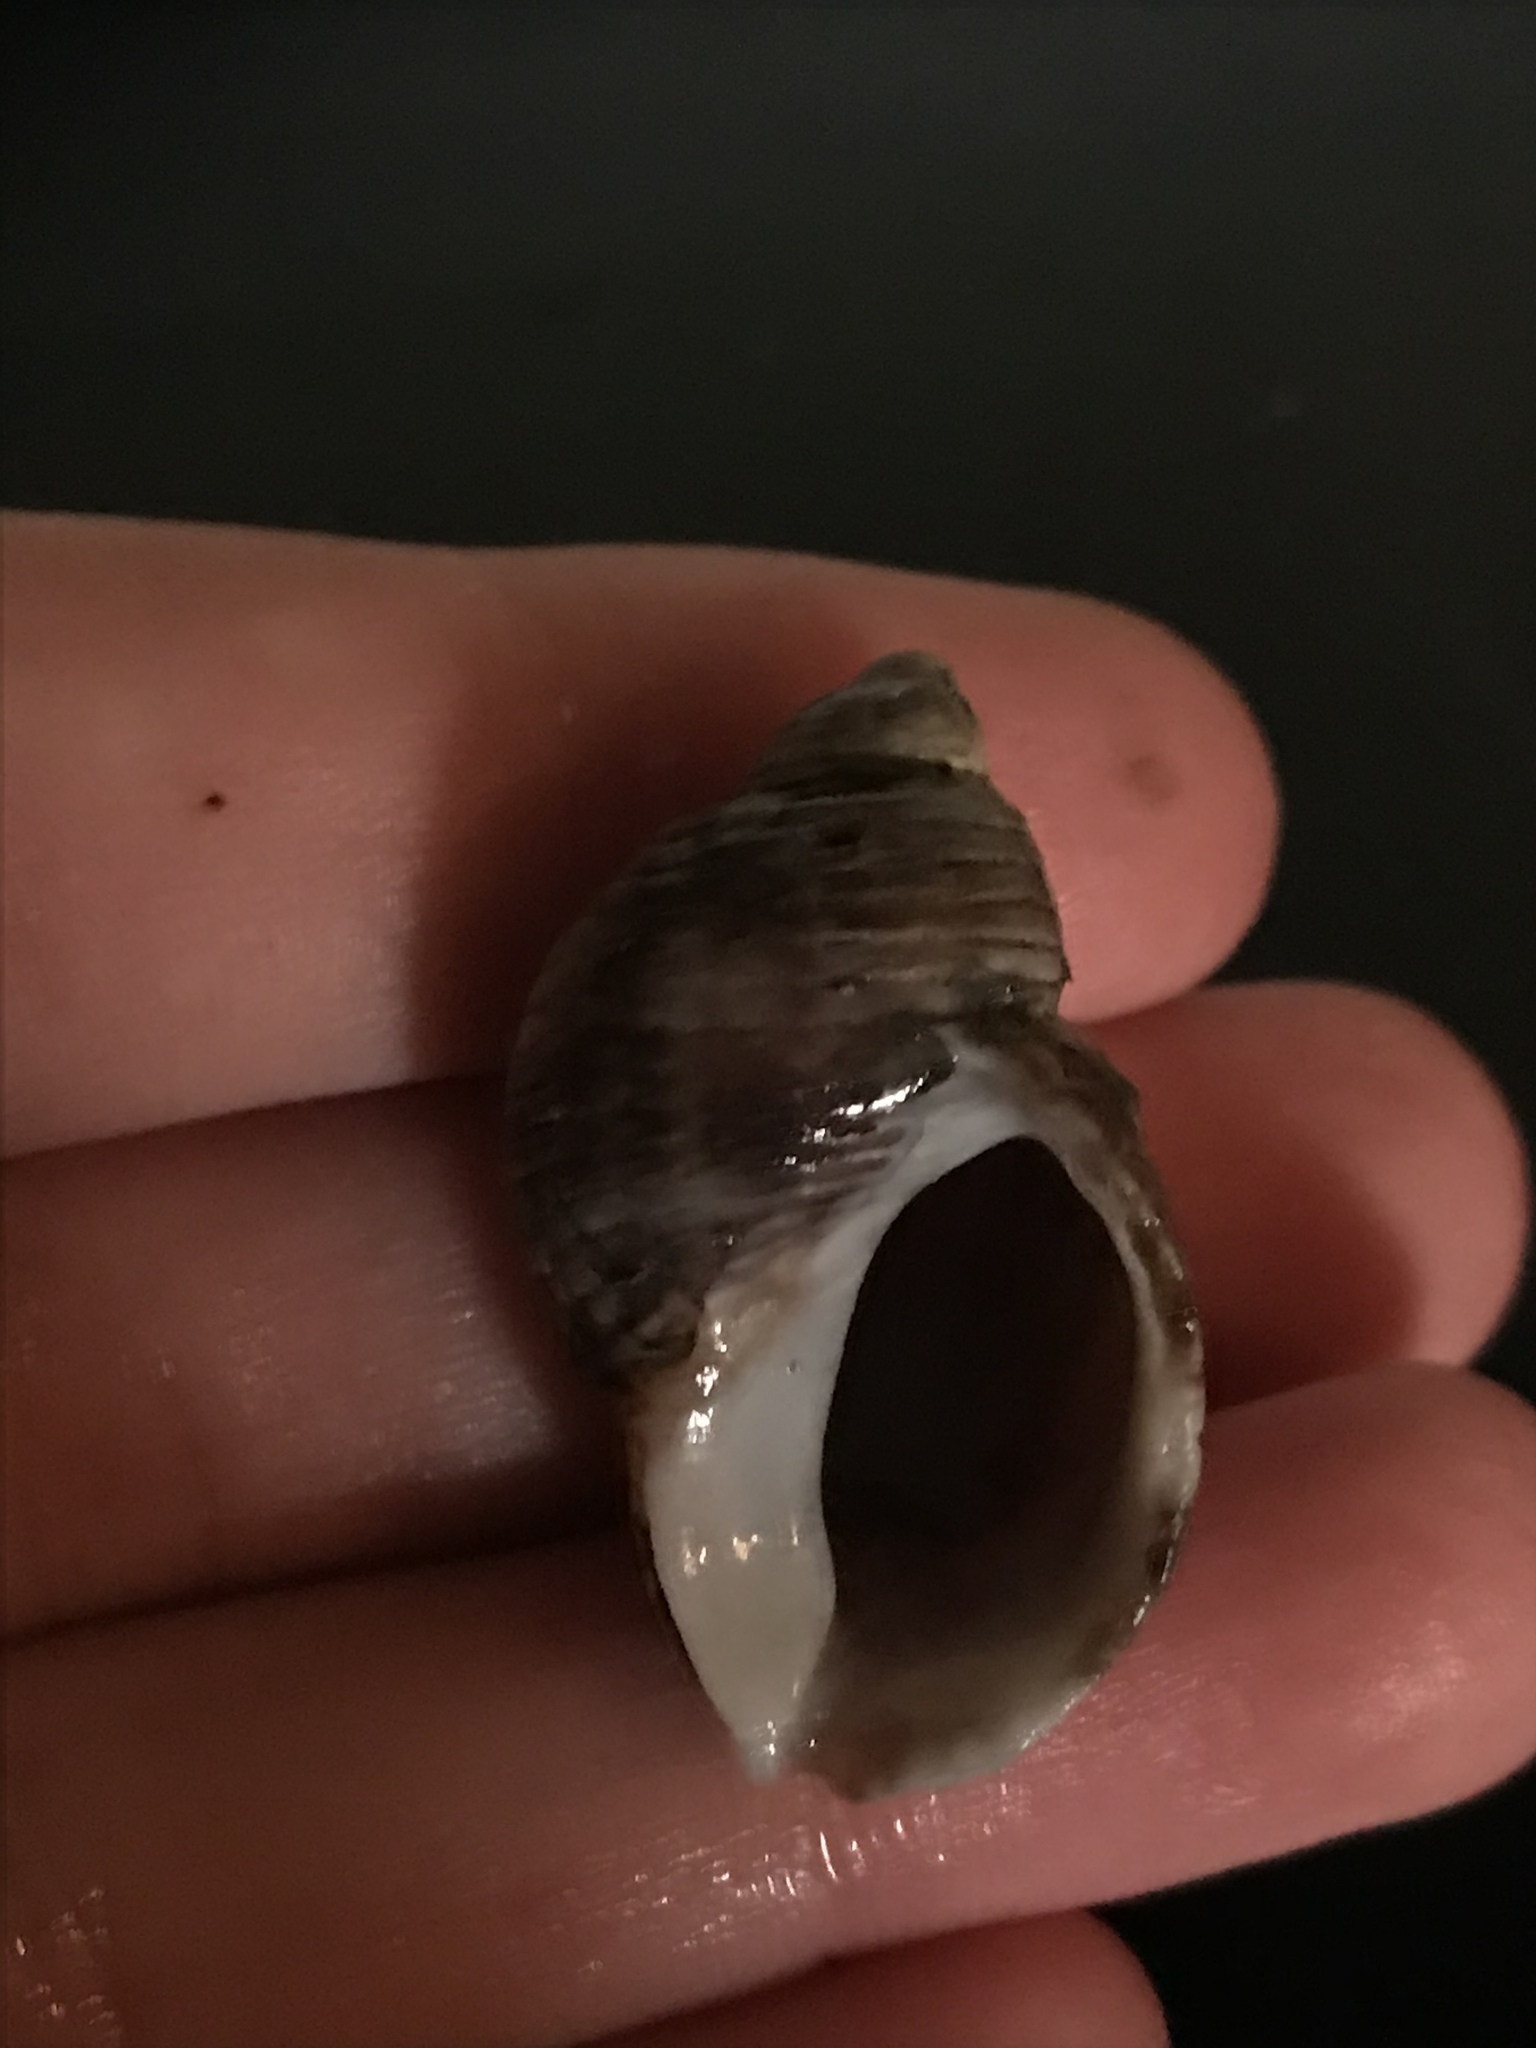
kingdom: Animalia
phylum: Mollusca
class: Gastropoda
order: Neogastropoda
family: Muricidae
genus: Nucella
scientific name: Nucella analoga
